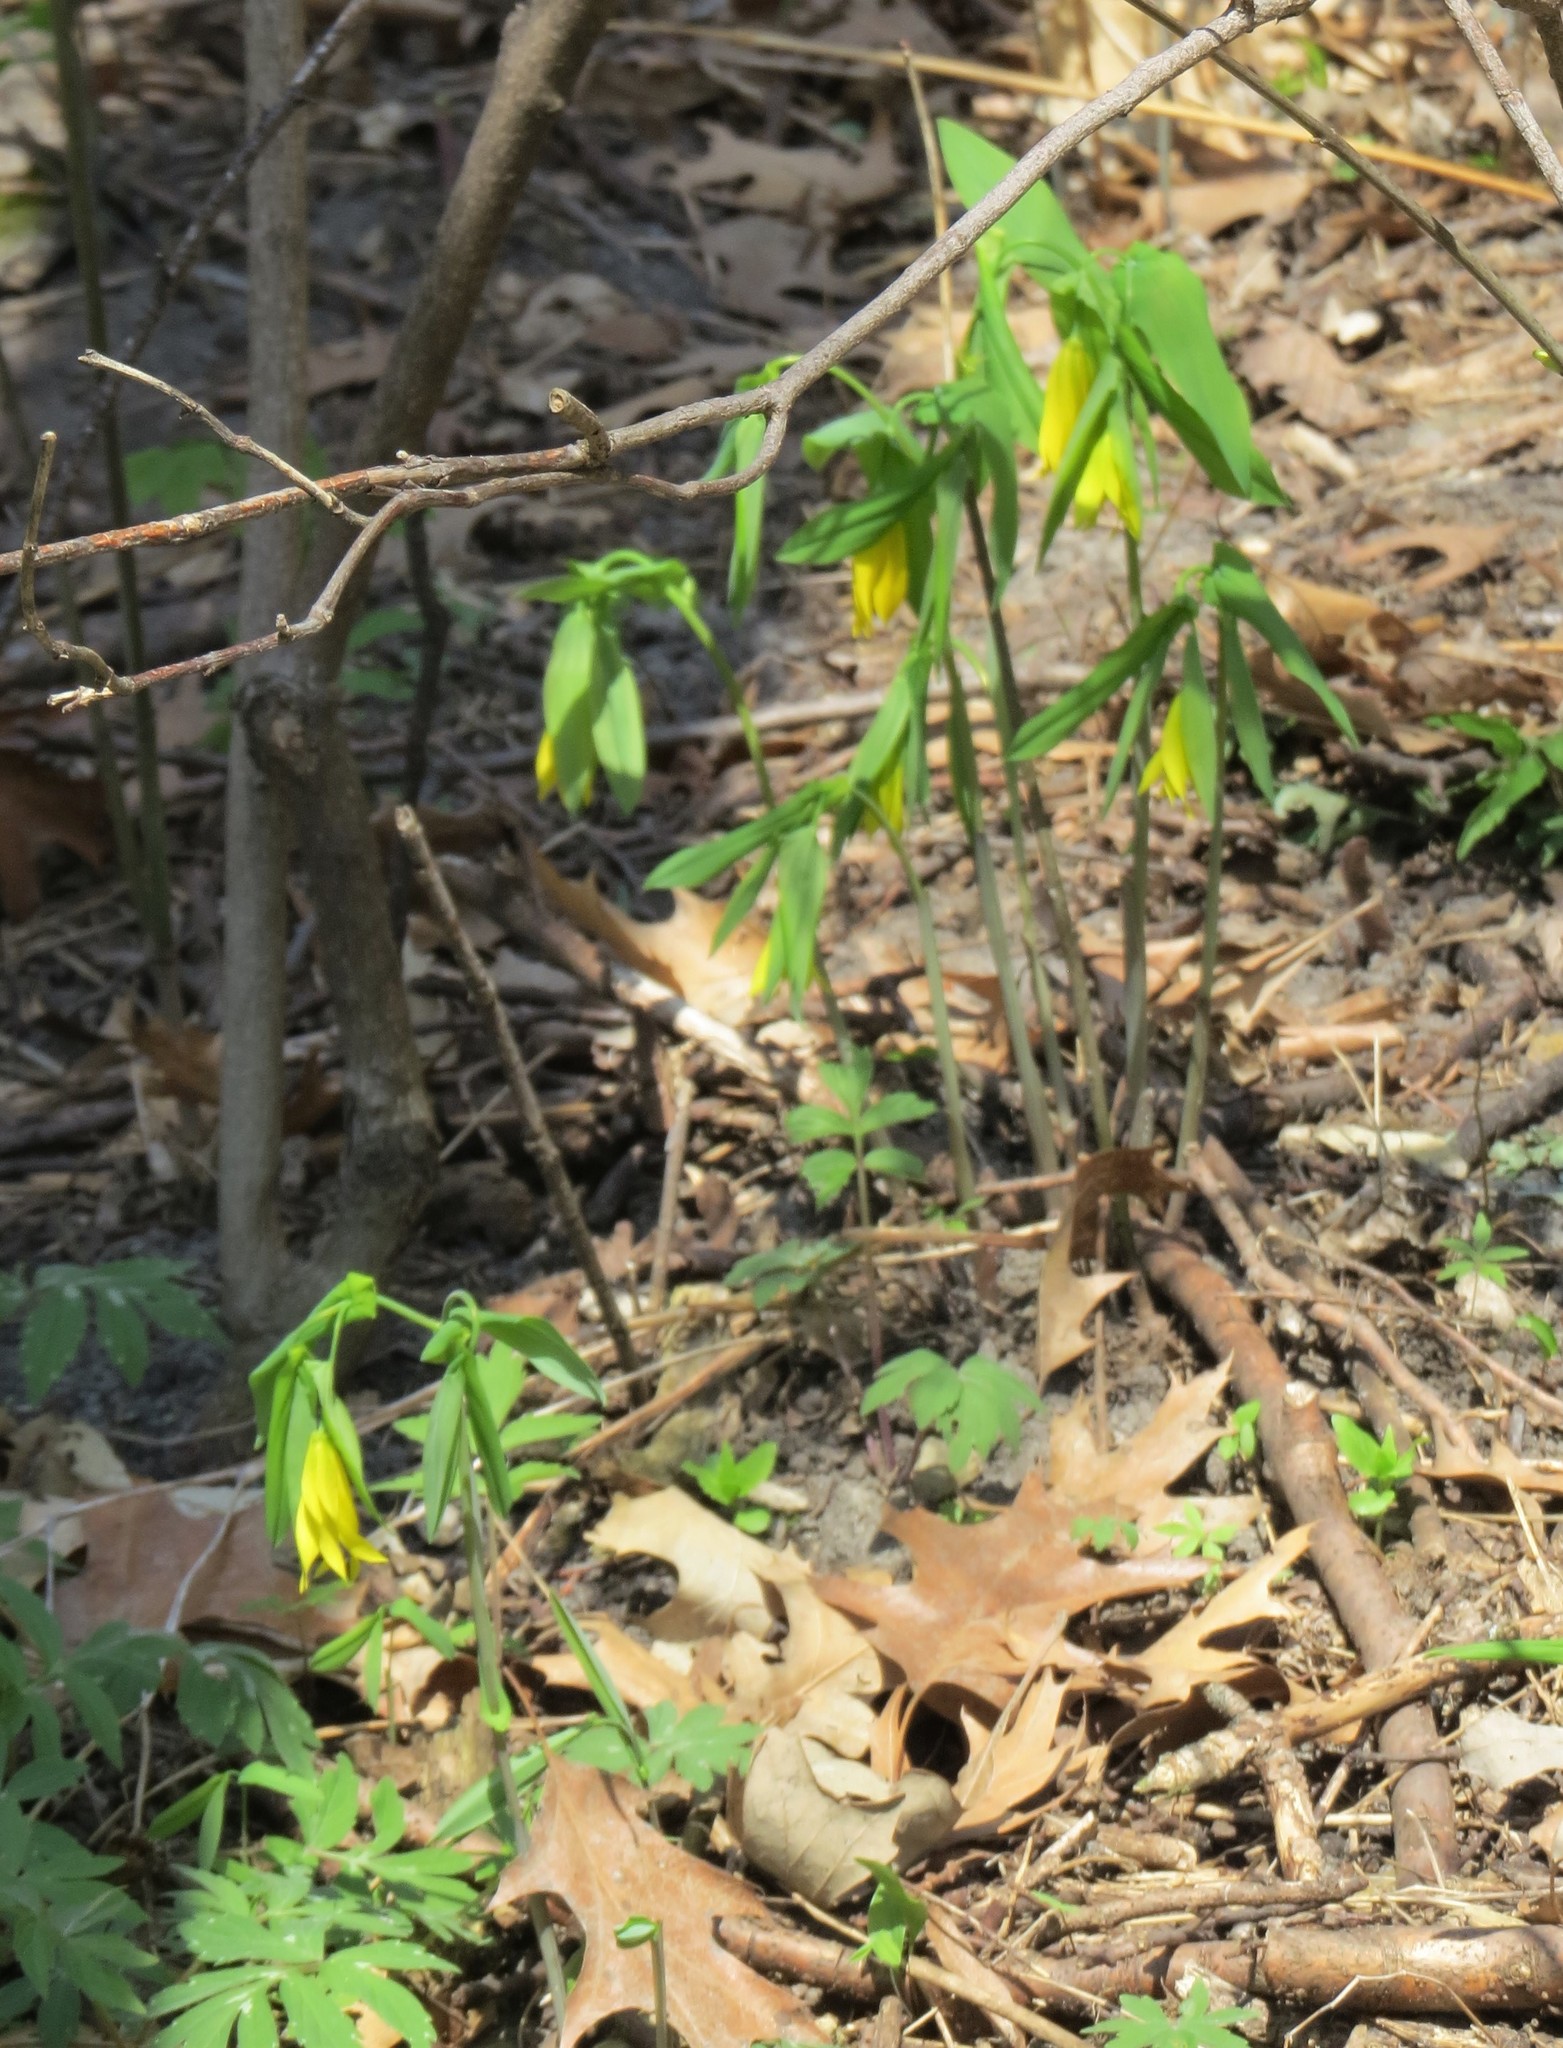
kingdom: Plantae
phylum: Tracheophyta
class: Liliopsida
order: Liliales
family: Colchicaceae
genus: Uvularia
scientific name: Uvularia grandiflora
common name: Bellwort
